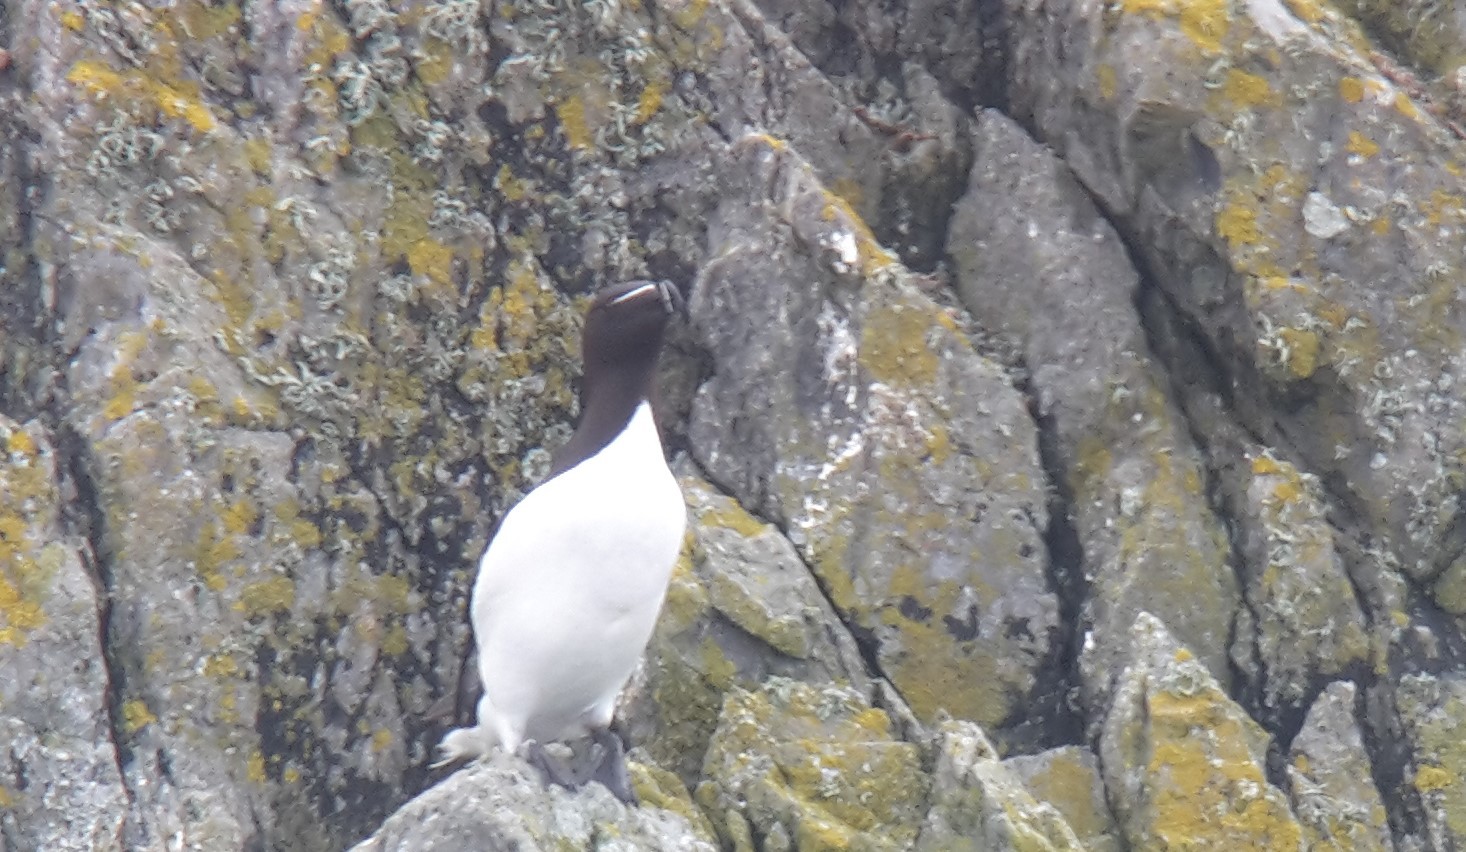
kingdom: Animalia
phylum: Chordata
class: Aves
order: Charadriiformes
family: Alcidae
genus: Alca
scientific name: Alca torda
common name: Razorbill
